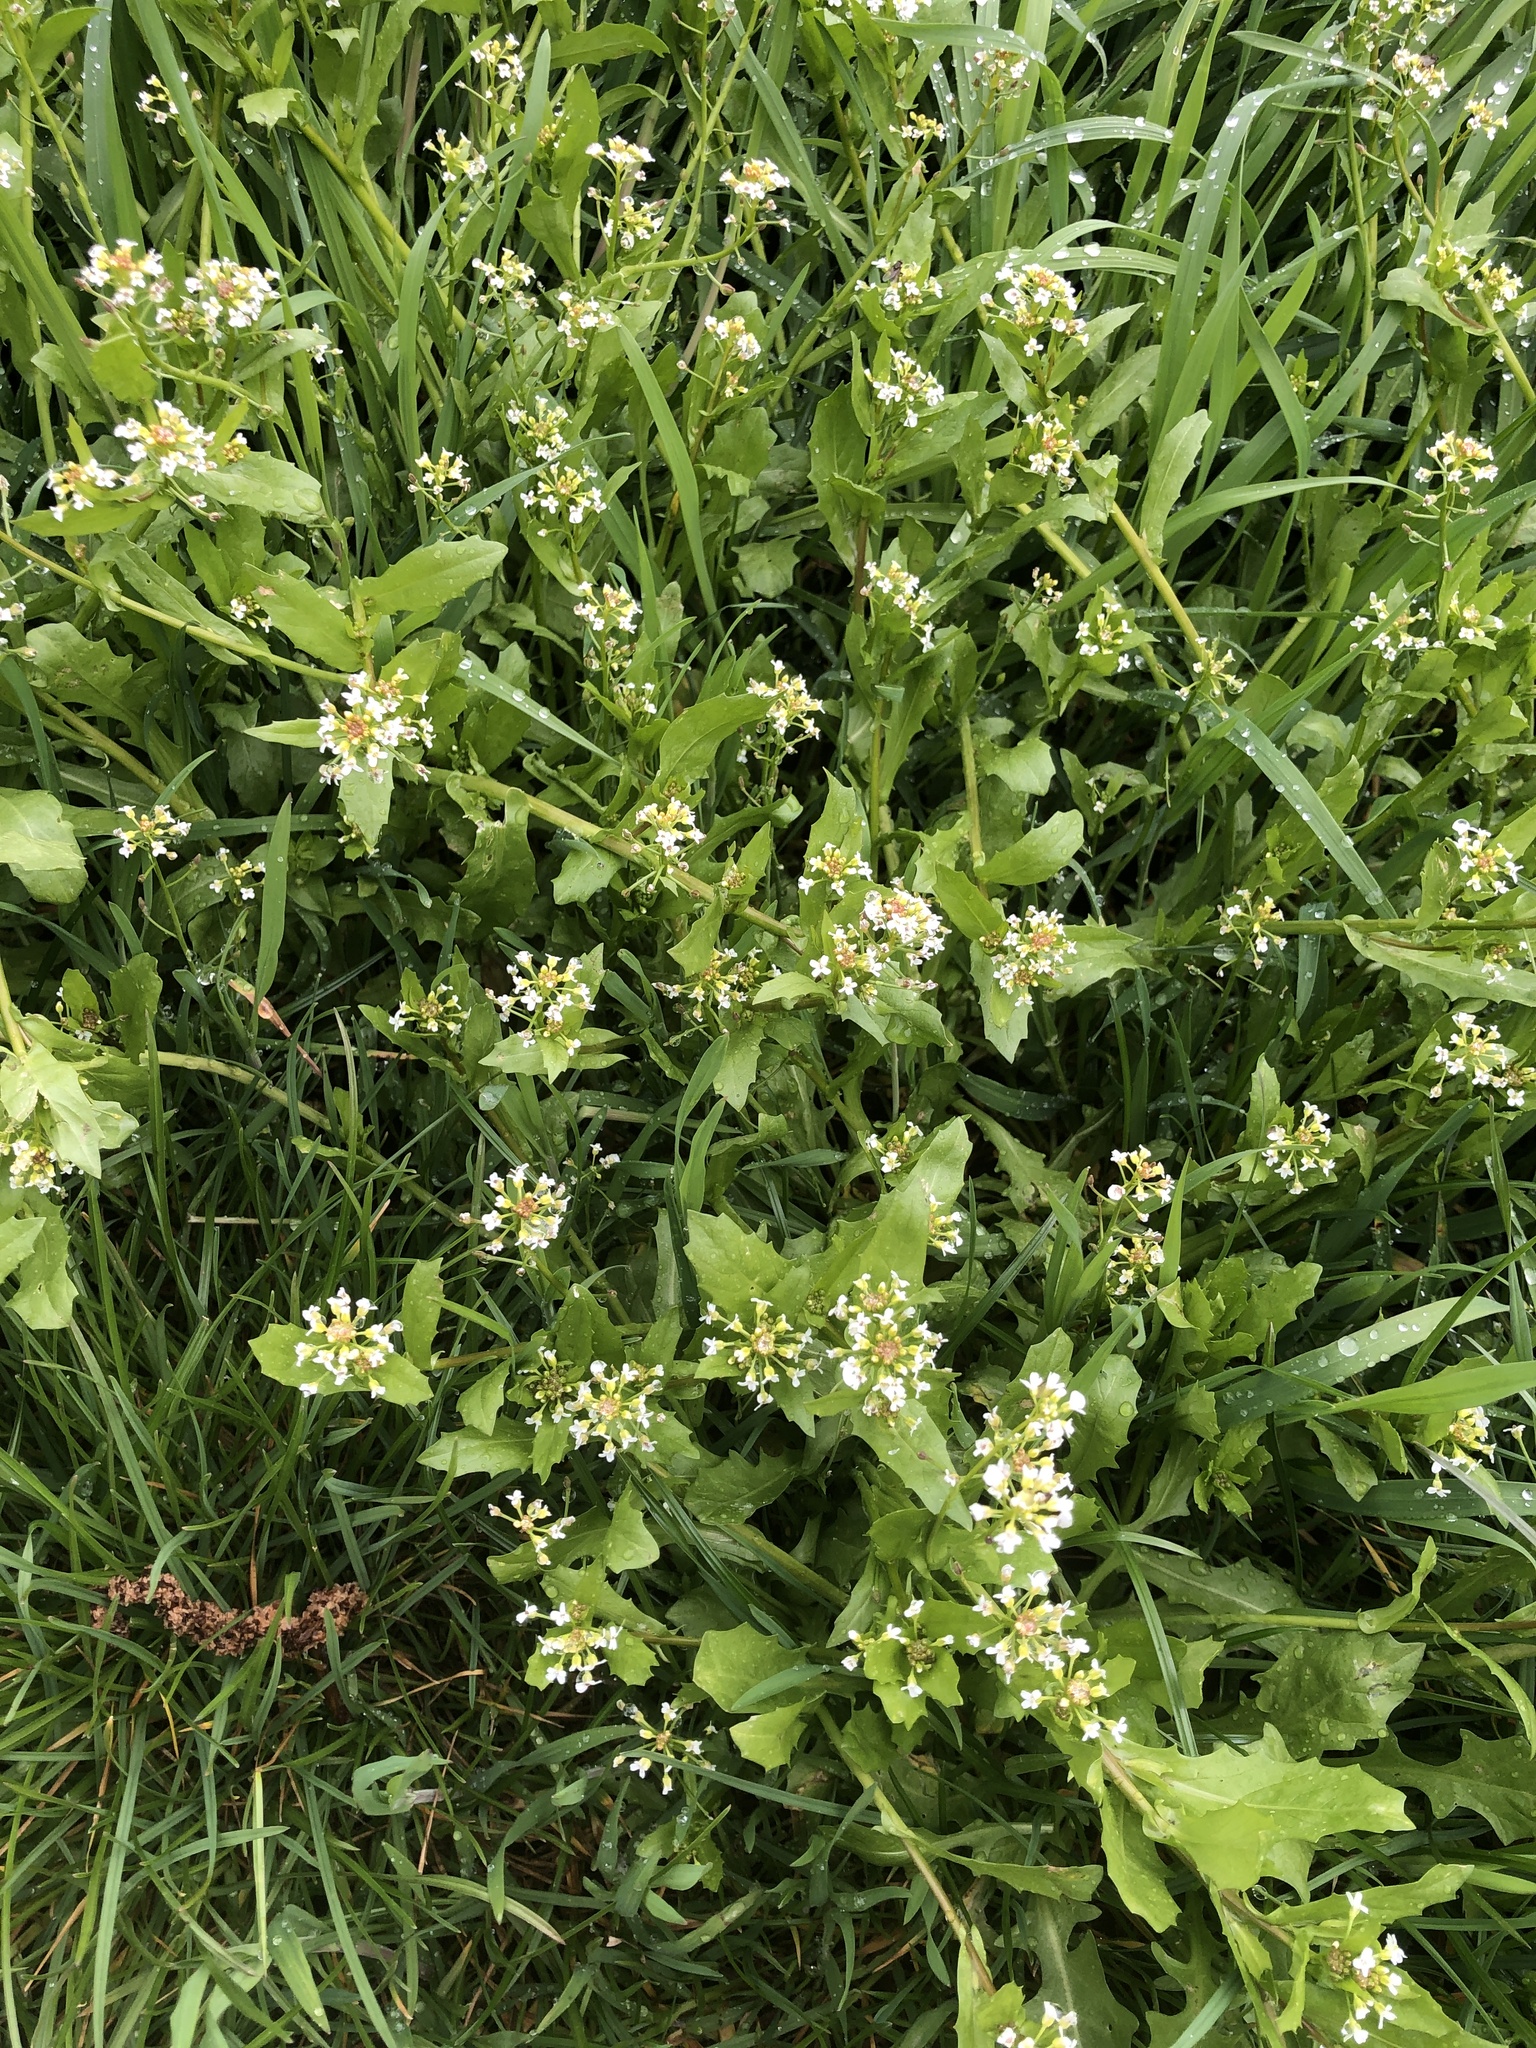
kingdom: Plantae
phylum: Tracheophyta
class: Magnoliopsida
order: Brassicales
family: Brassicaceae
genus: Thlaspi
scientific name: Thlaspi arvense
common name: Field pennycress
